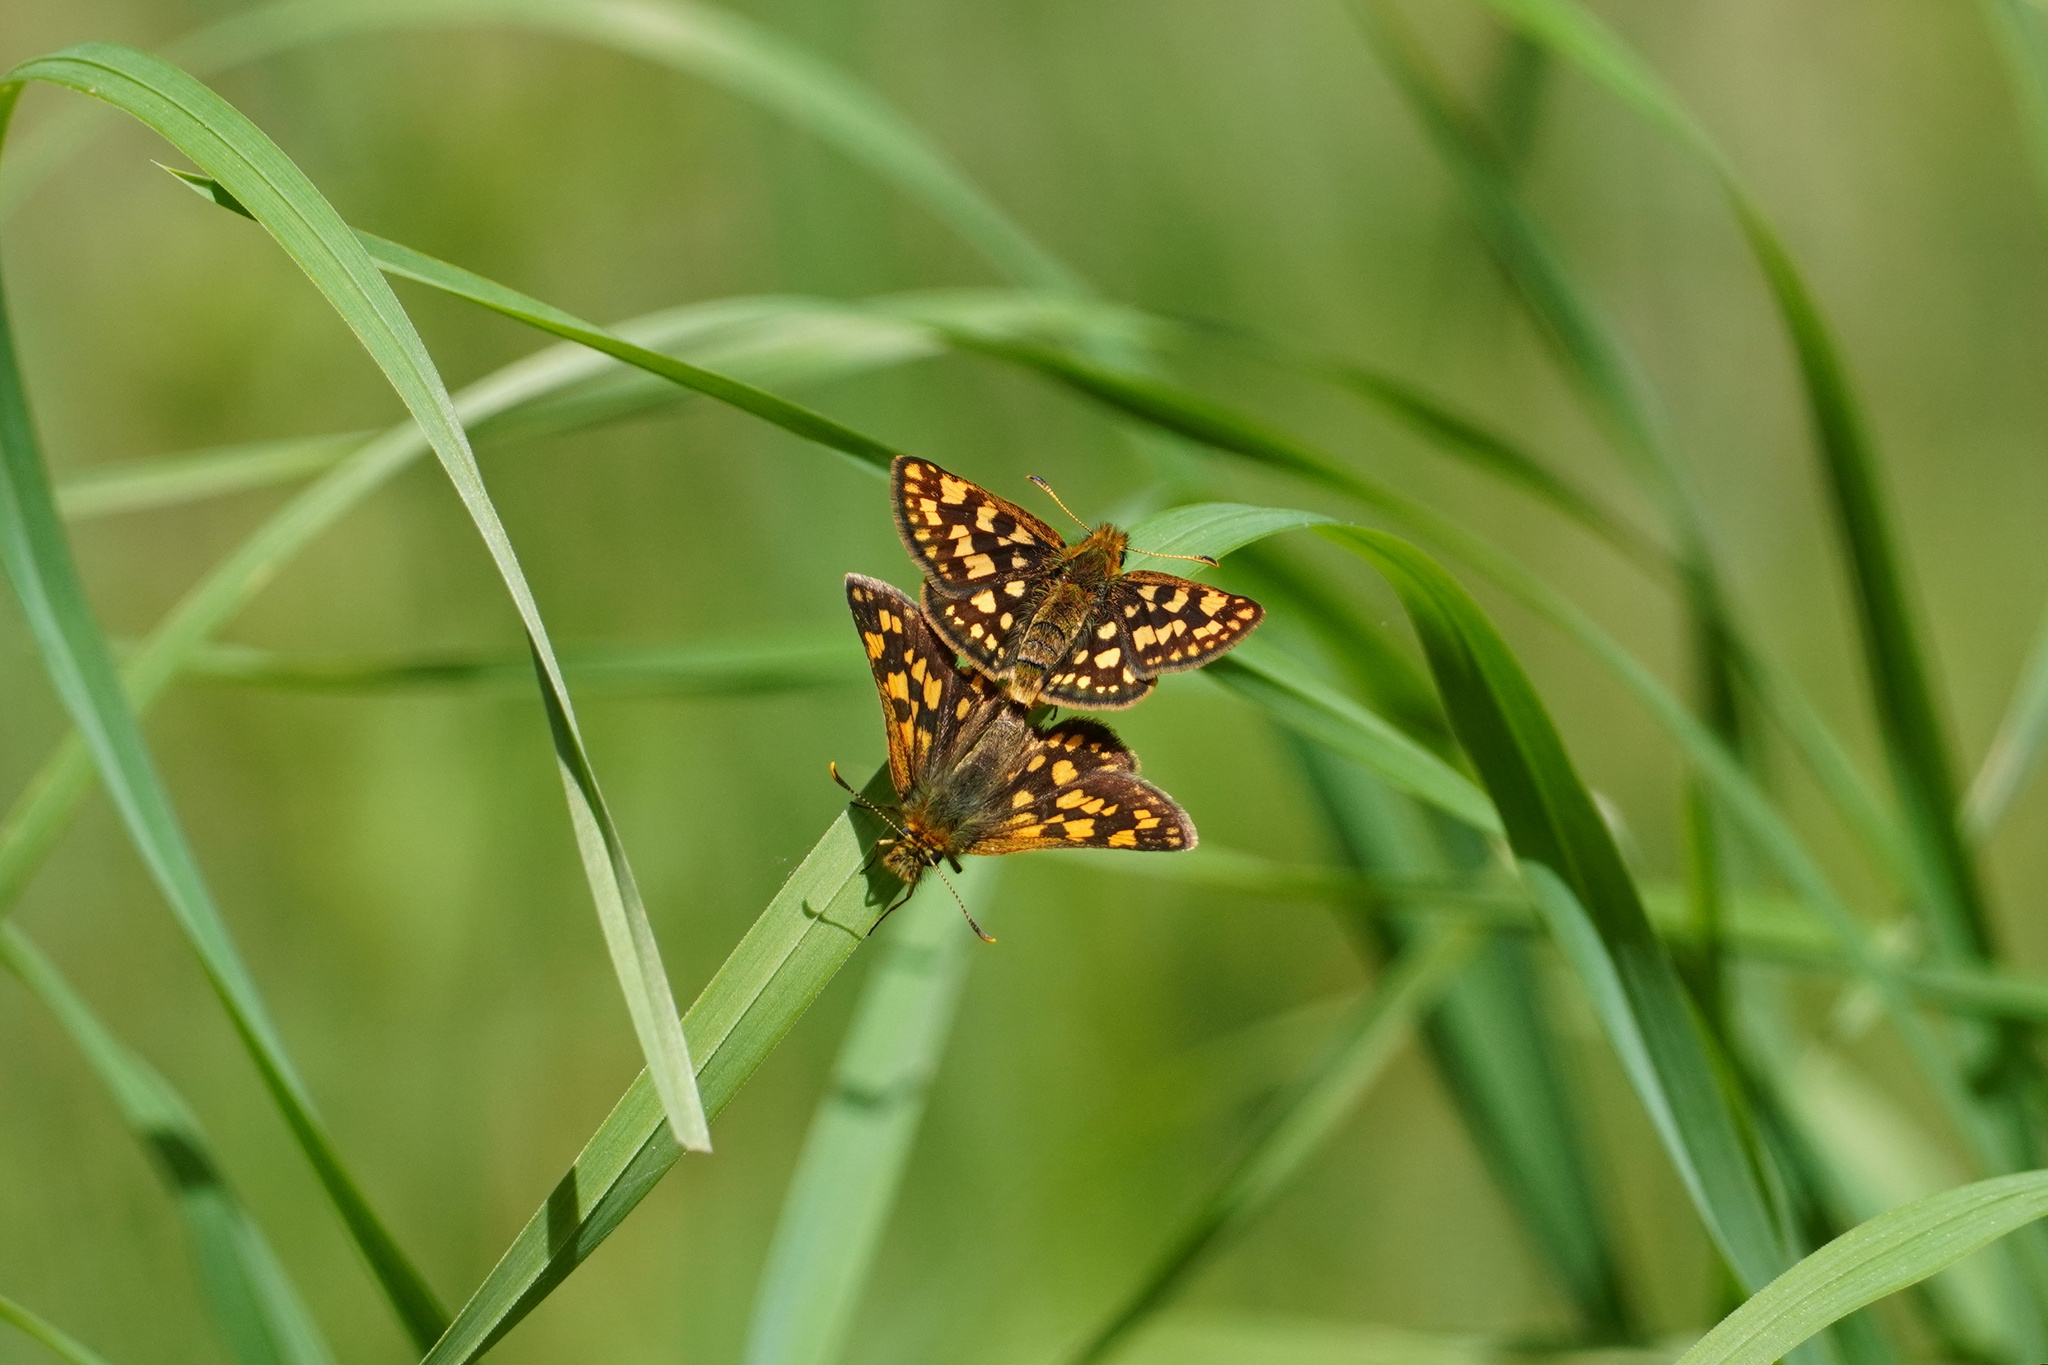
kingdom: Animalia
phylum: Arthropoda
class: Insecta
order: Lepidoptera
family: Hesperiidae
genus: Carterocephalus
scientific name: Carterocephalus skada
